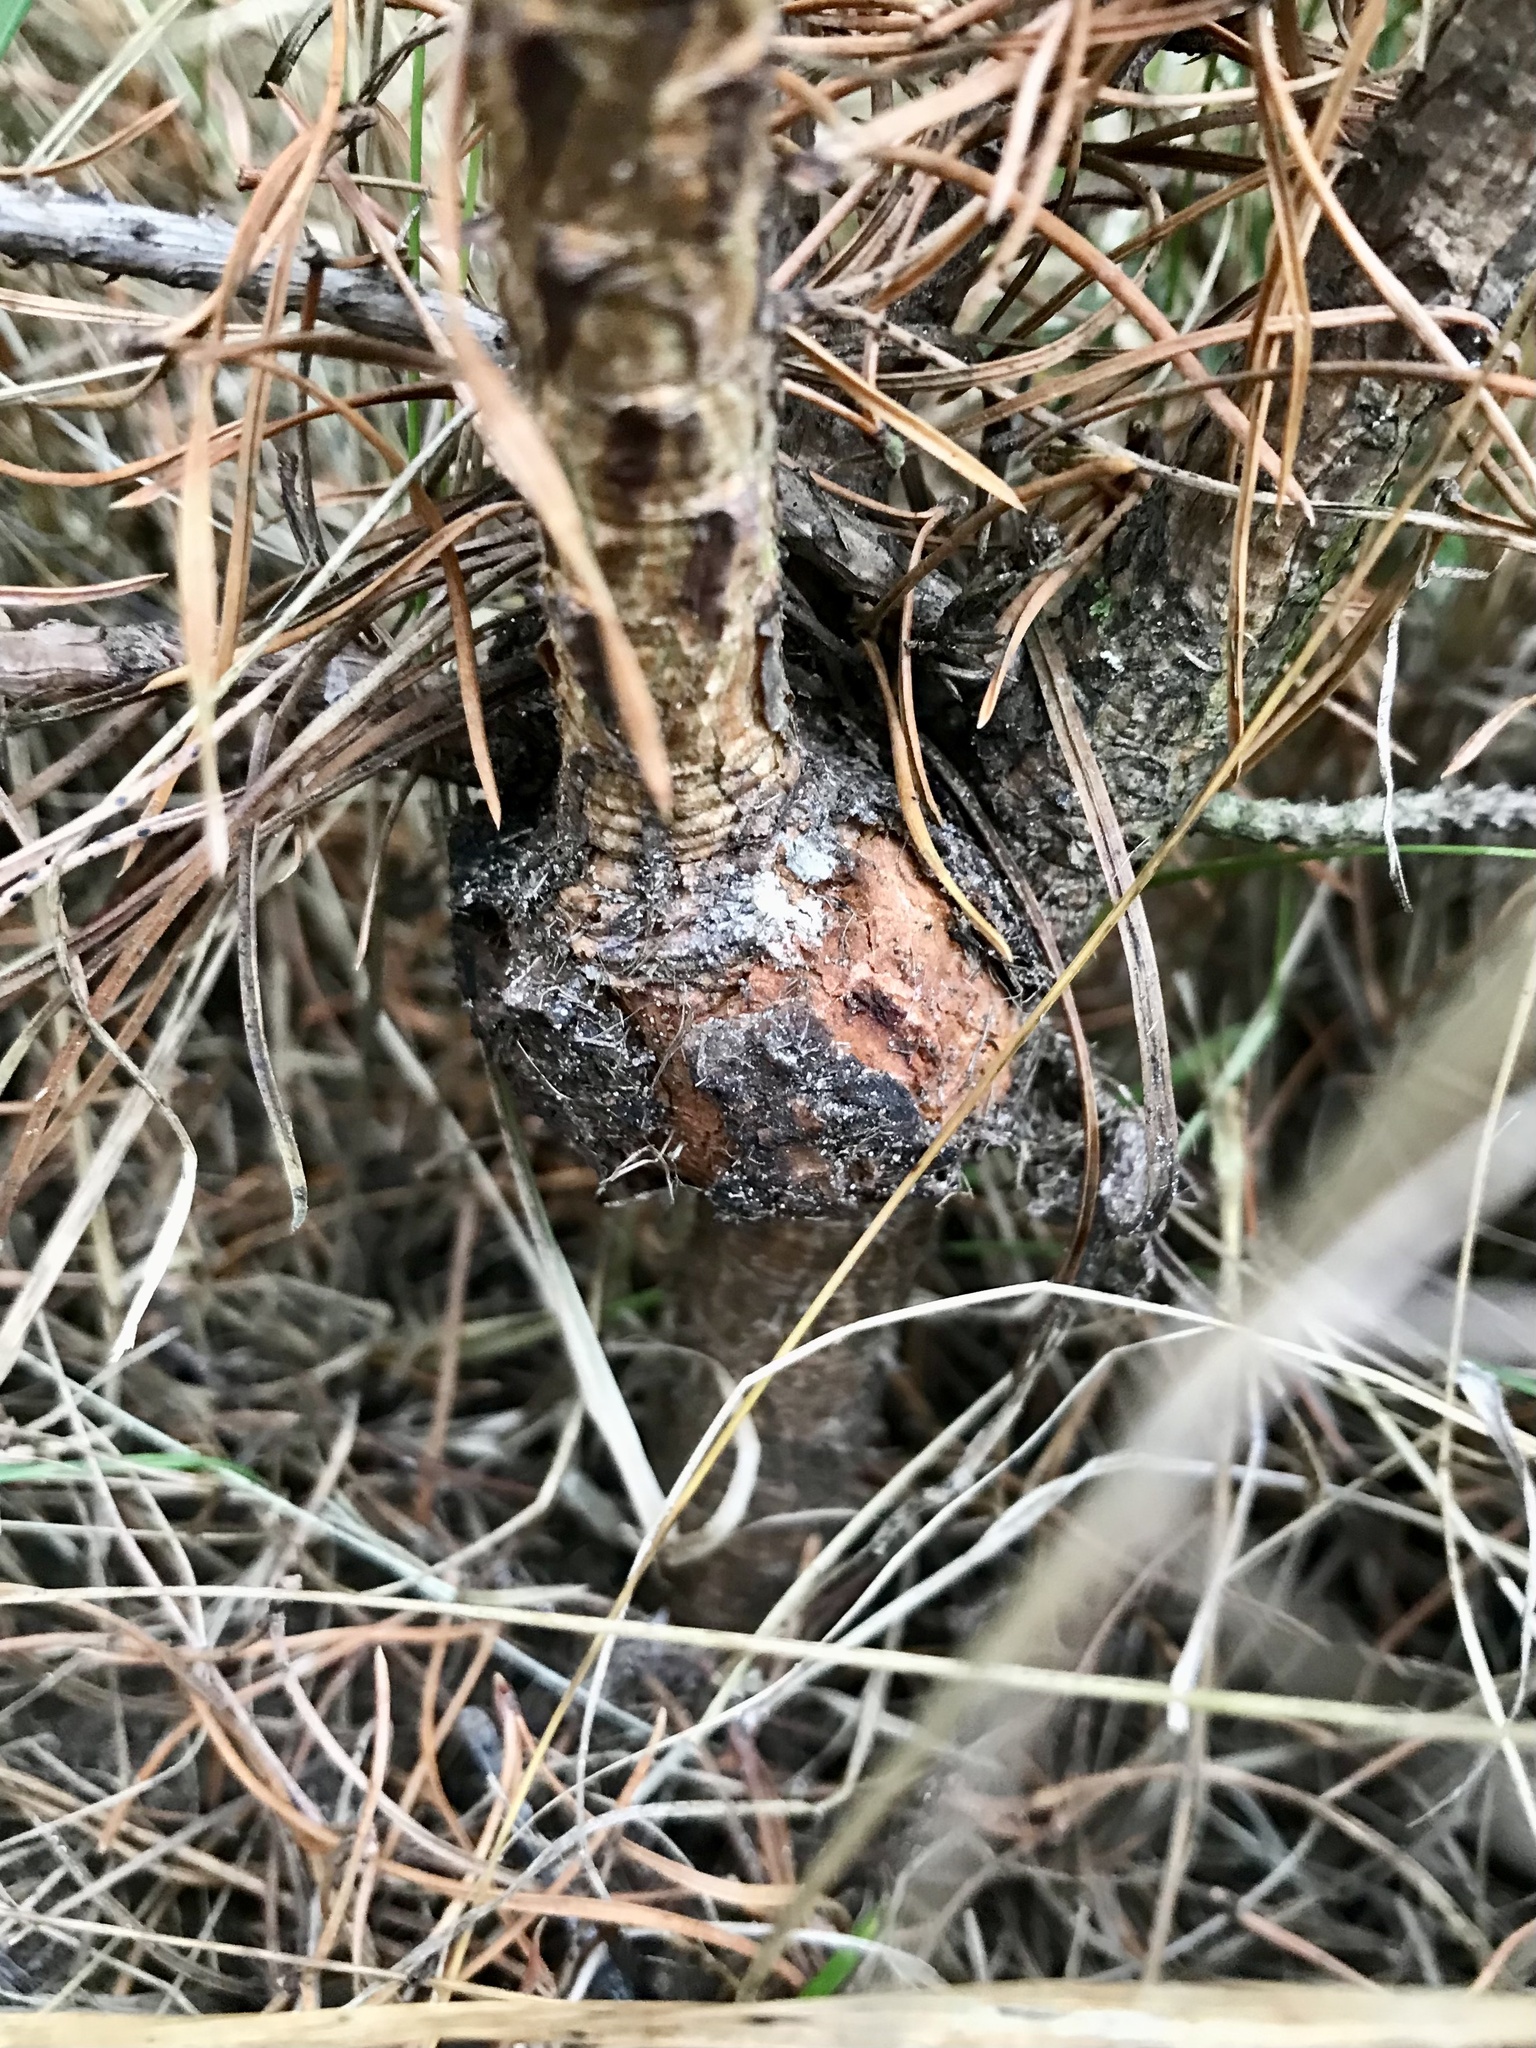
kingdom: Fungi
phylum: Basidiomycota
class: Pucciniomycetes
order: Pucciniales
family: Cronartiaceae
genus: Cronartium
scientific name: Cronartium quercuum
